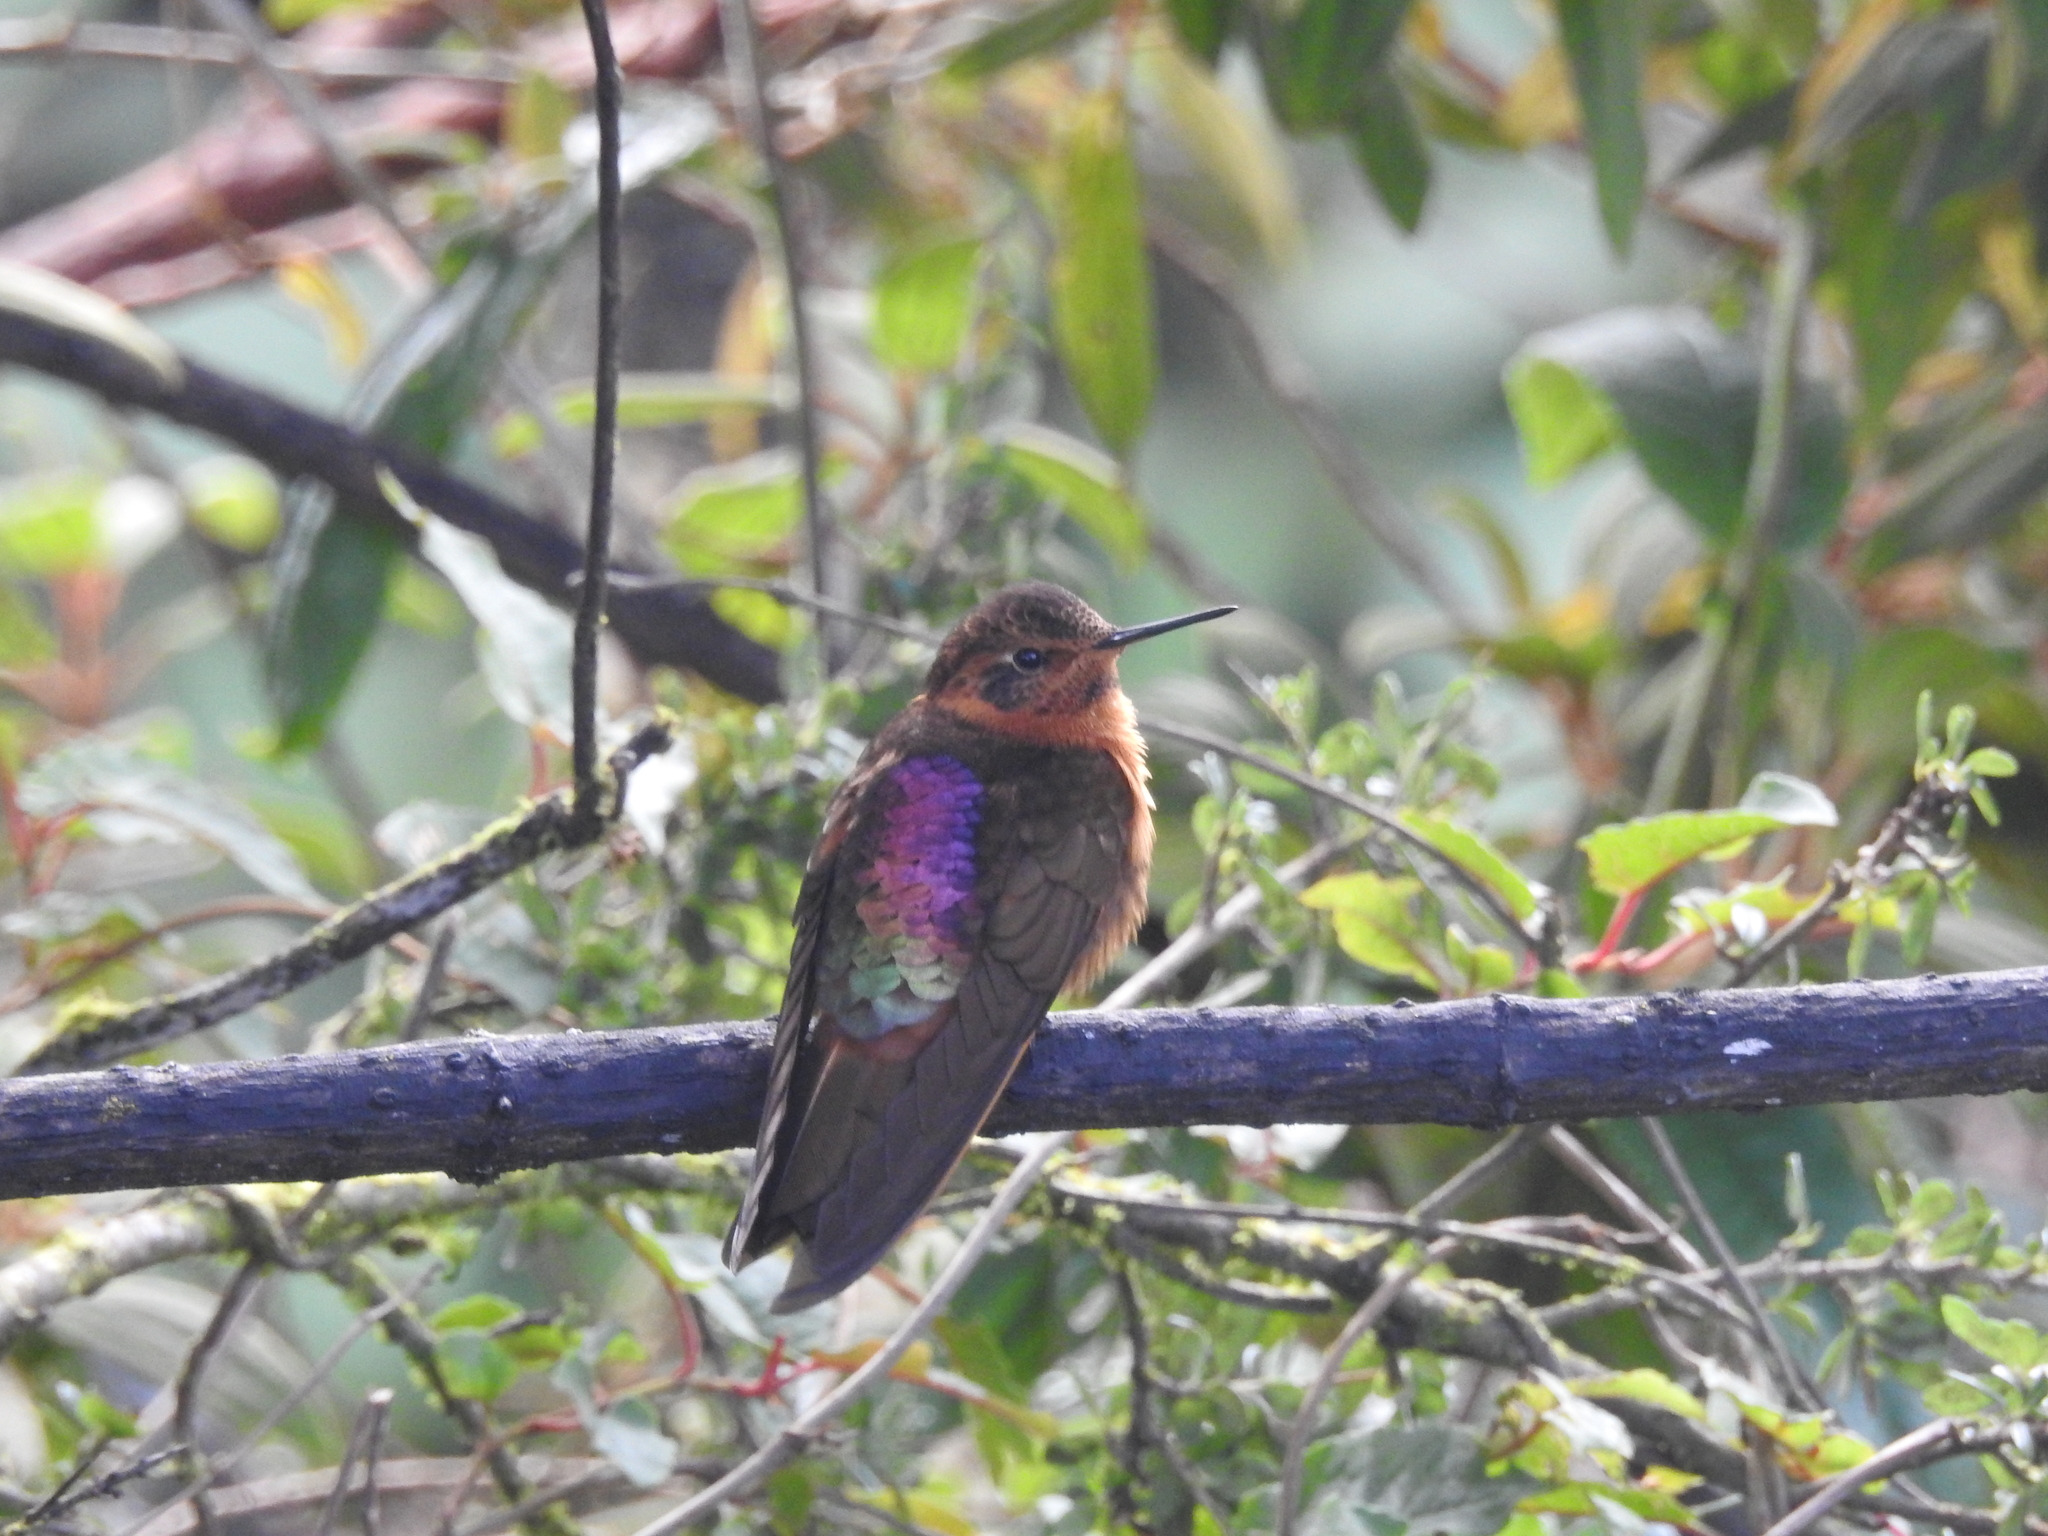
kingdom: Animalia
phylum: Chordata
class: Aves
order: Apodiformes
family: Trochilidae
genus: Aglaeactis
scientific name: Aglaeactis cupripennis
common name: Shining sunbeam
